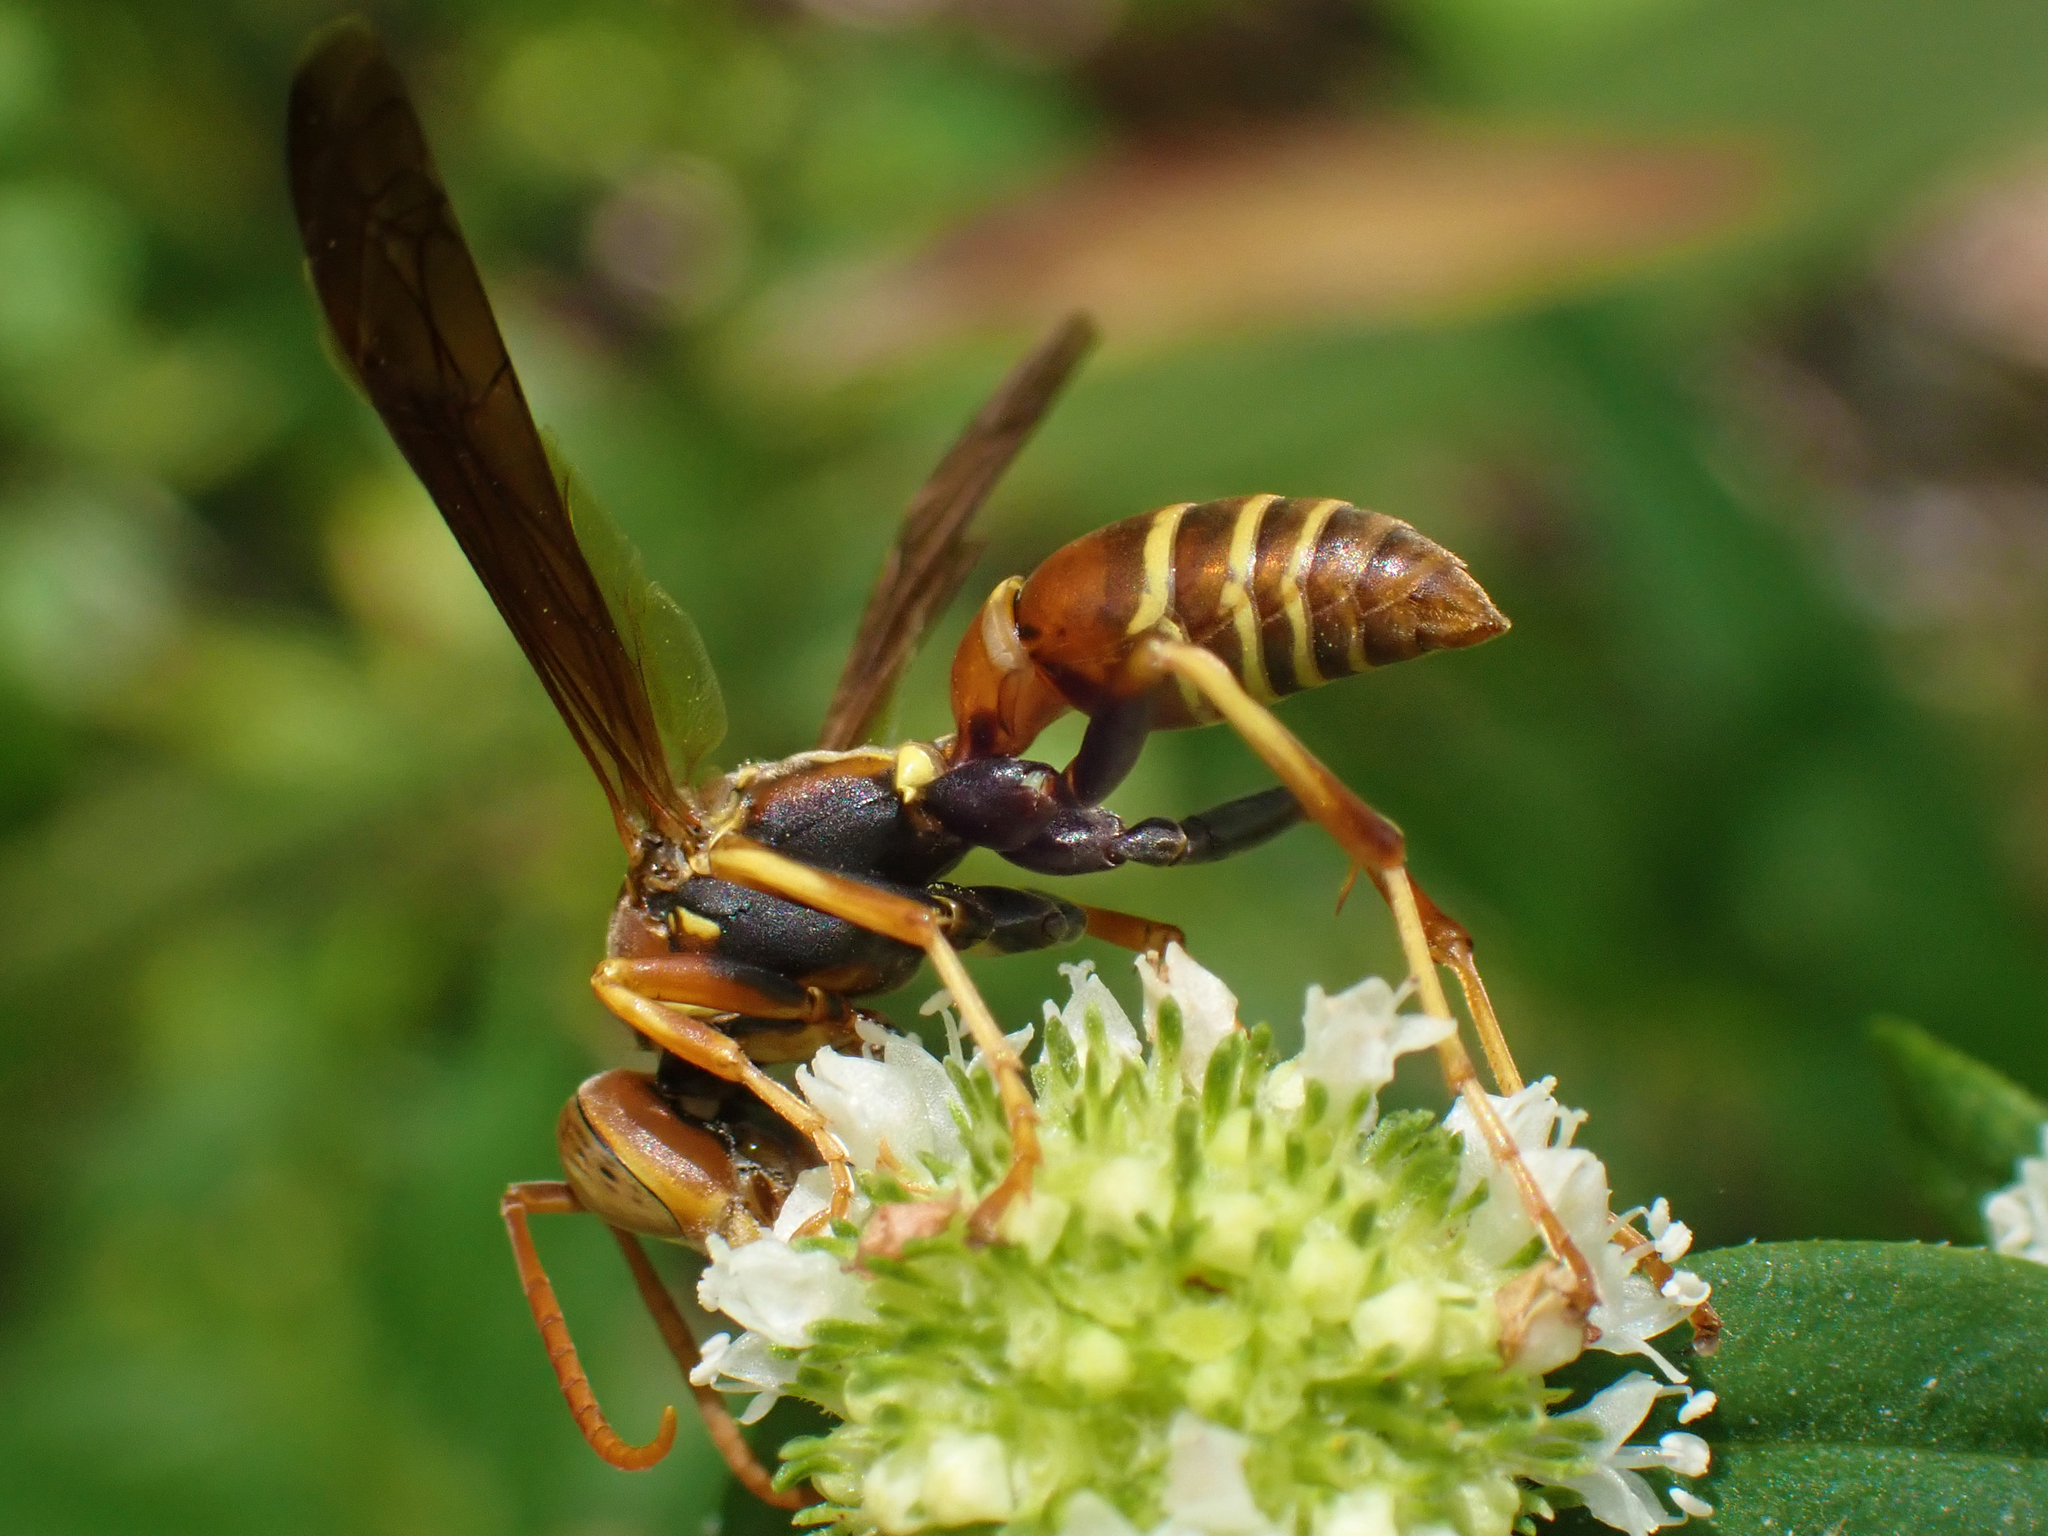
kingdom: Animalia
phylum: Arthropoda
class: Insecta
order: Hymenoptera
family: Eumenidae
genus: Polistes
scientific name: Polistes dorsalis
